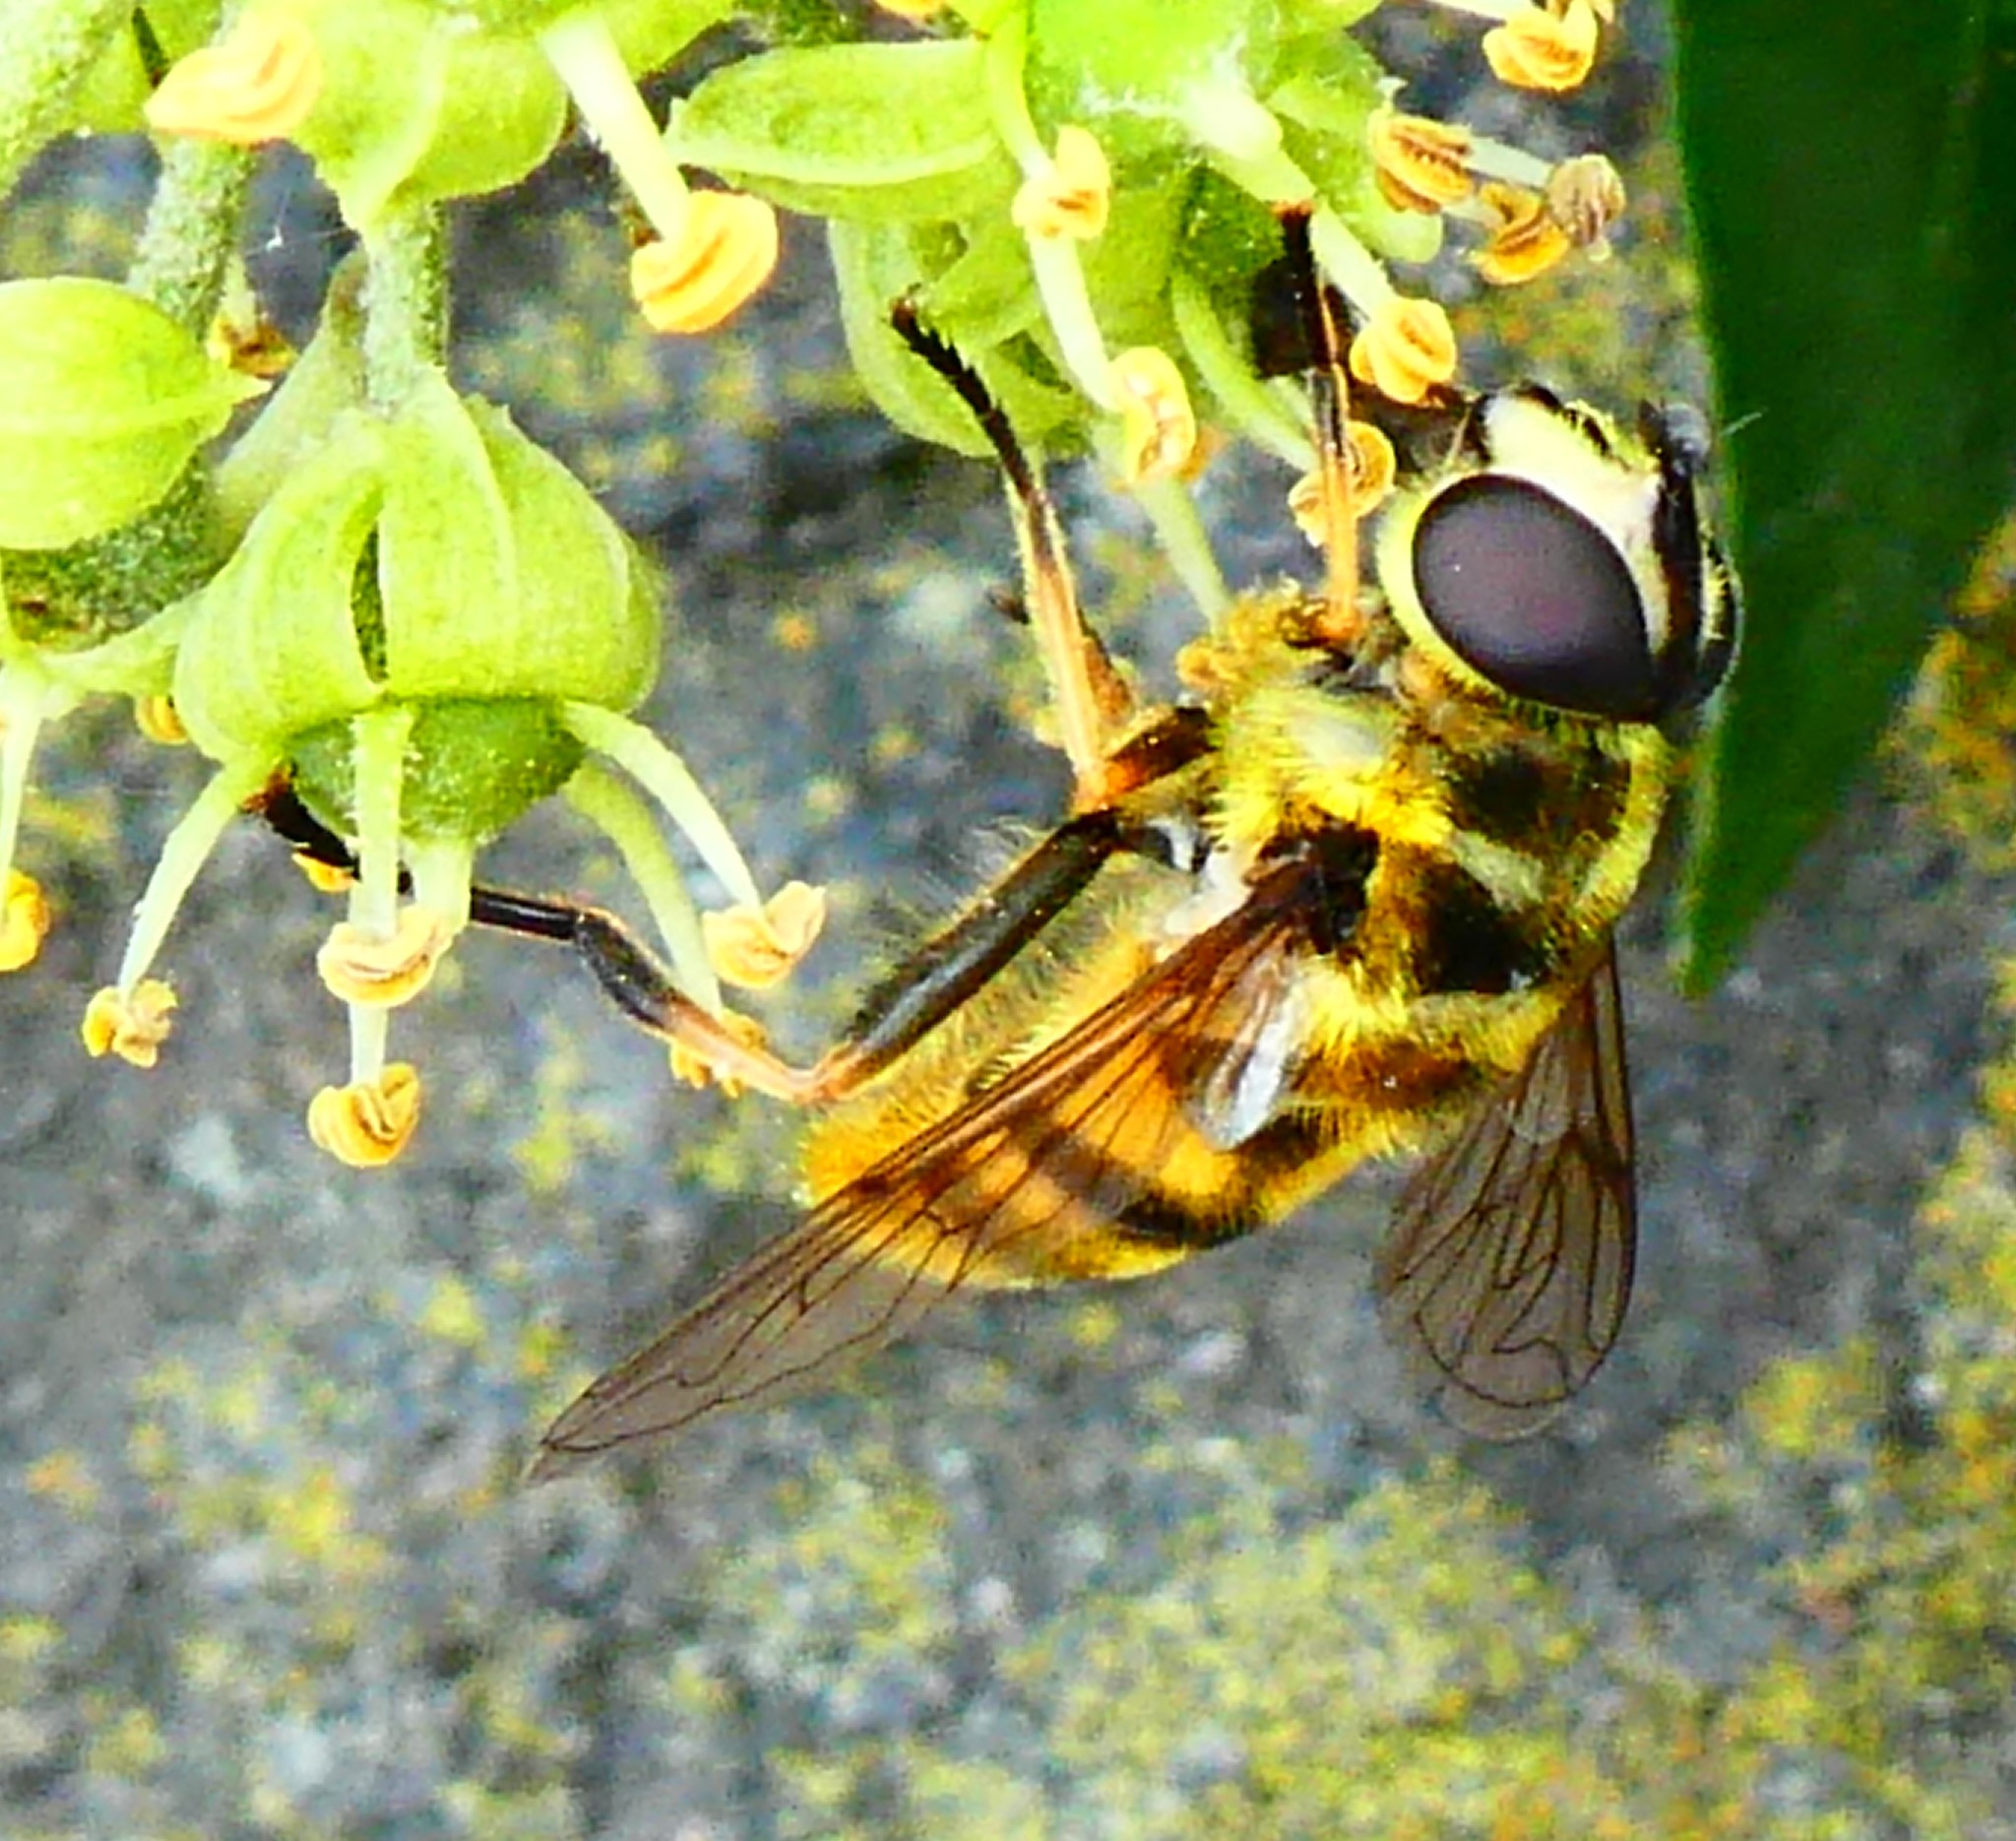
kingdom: Animalia
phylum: Arthropoda
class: Insecta
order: Diptera
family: Syrphidae
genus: Myathropa
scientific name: Myathropa florea
